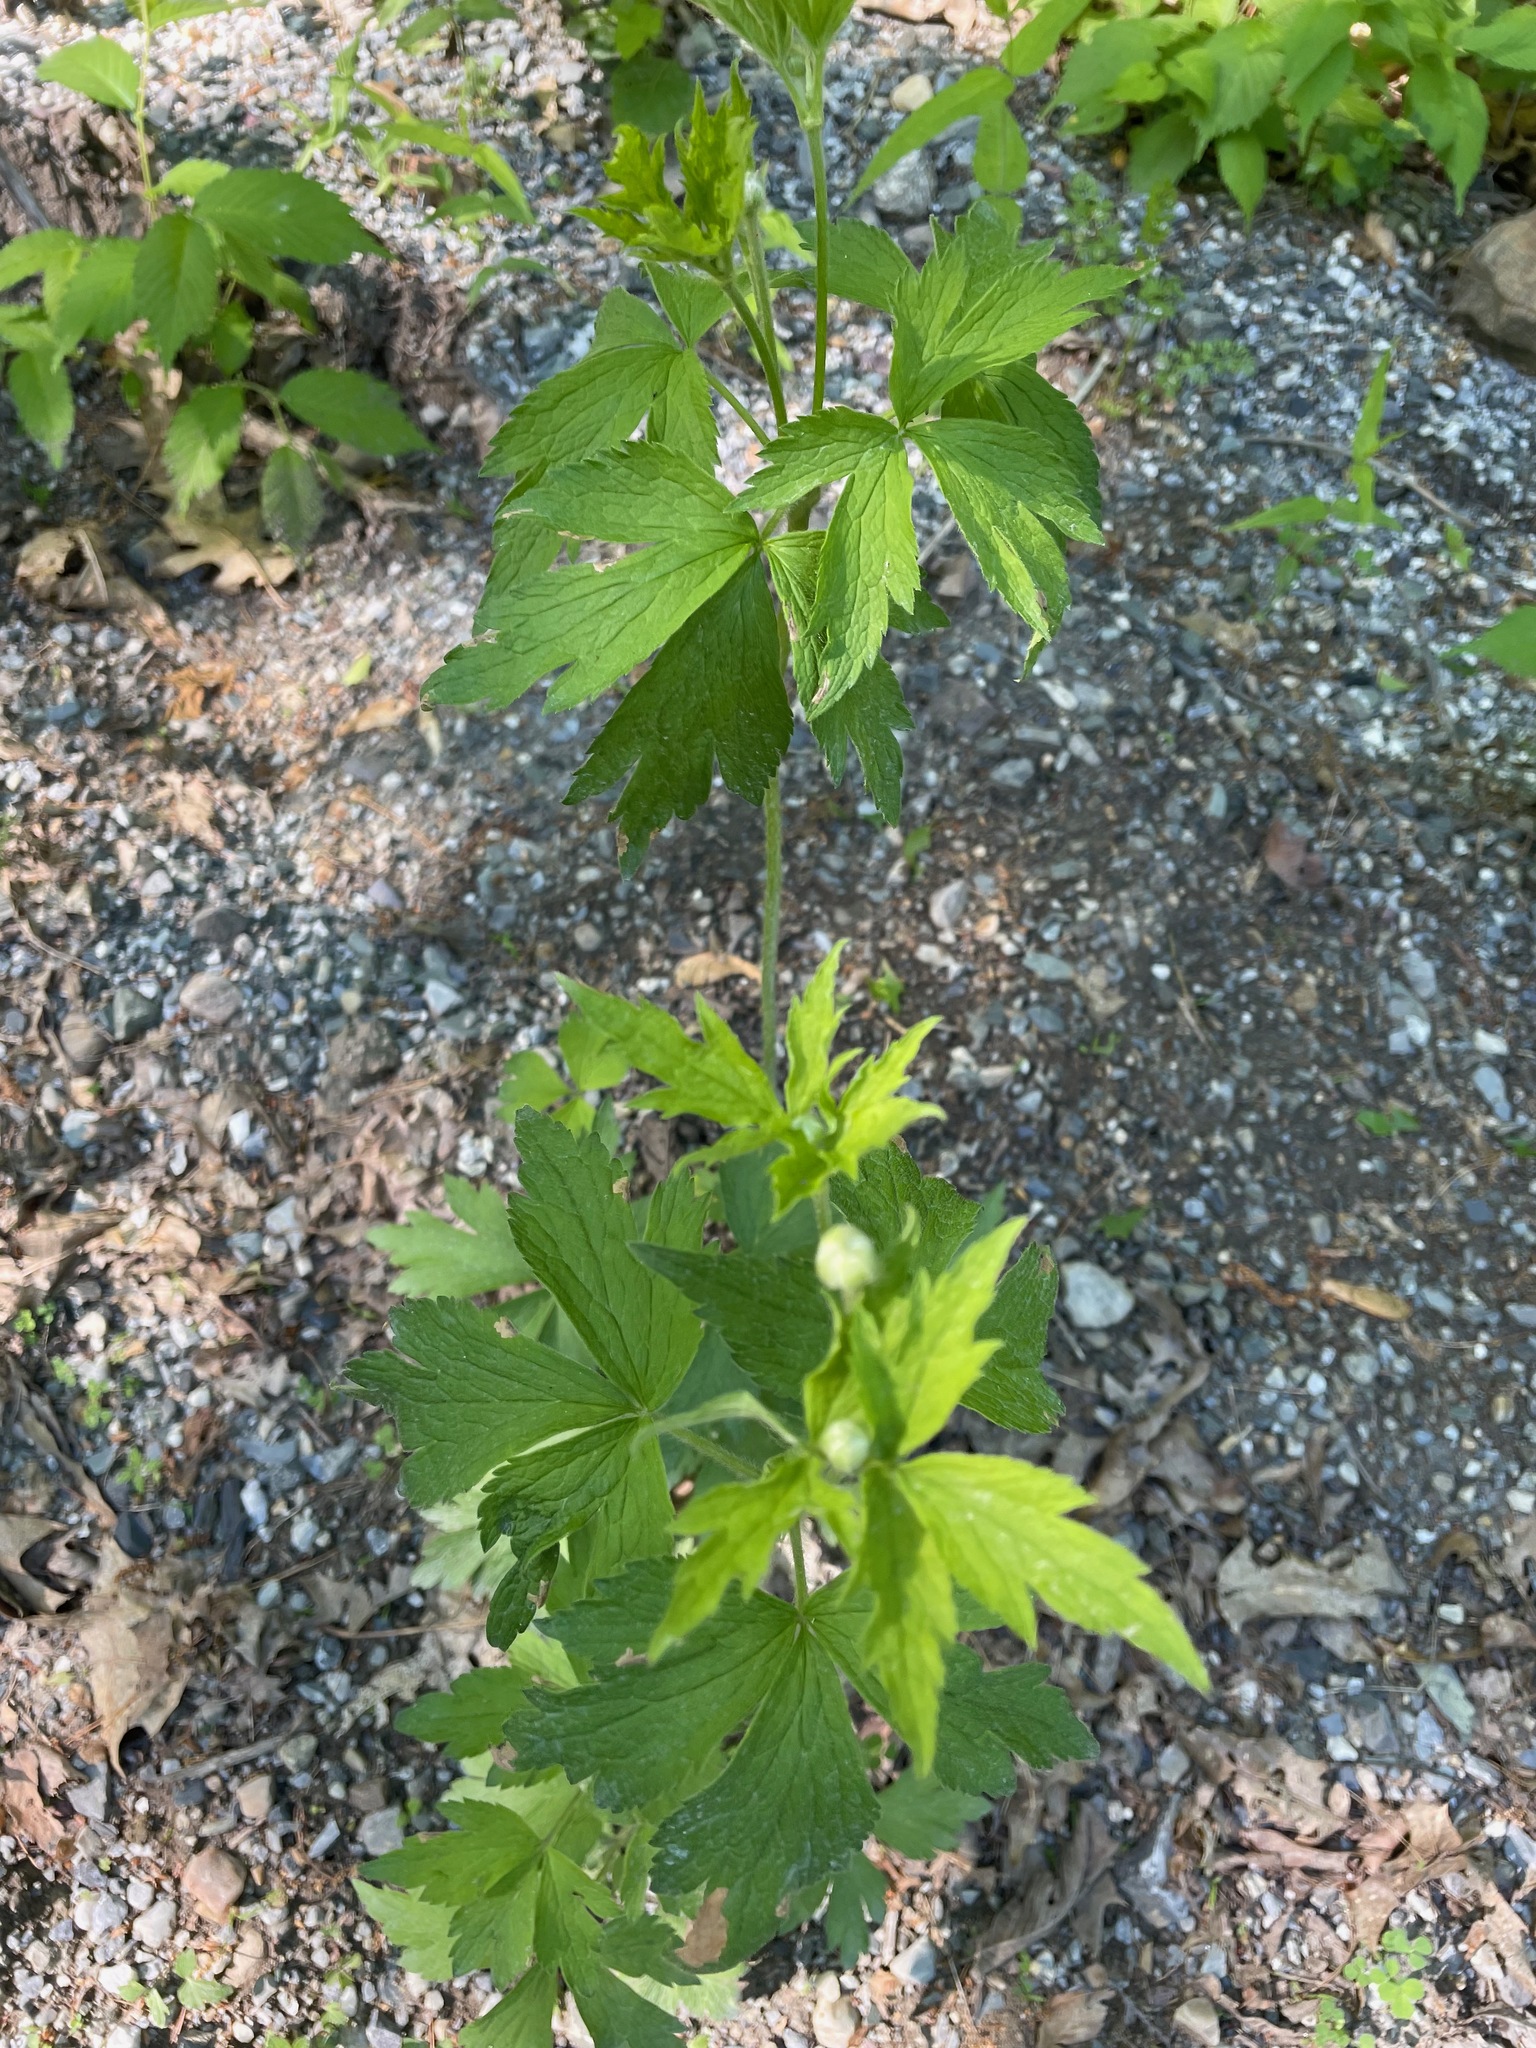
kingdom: Plantae
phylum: Tracheophyta
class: Magnoliopsida
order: Ranunculales
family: Ranunculaceae
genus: Anemone
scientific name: Anemone virginiana
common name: Tall anemone
